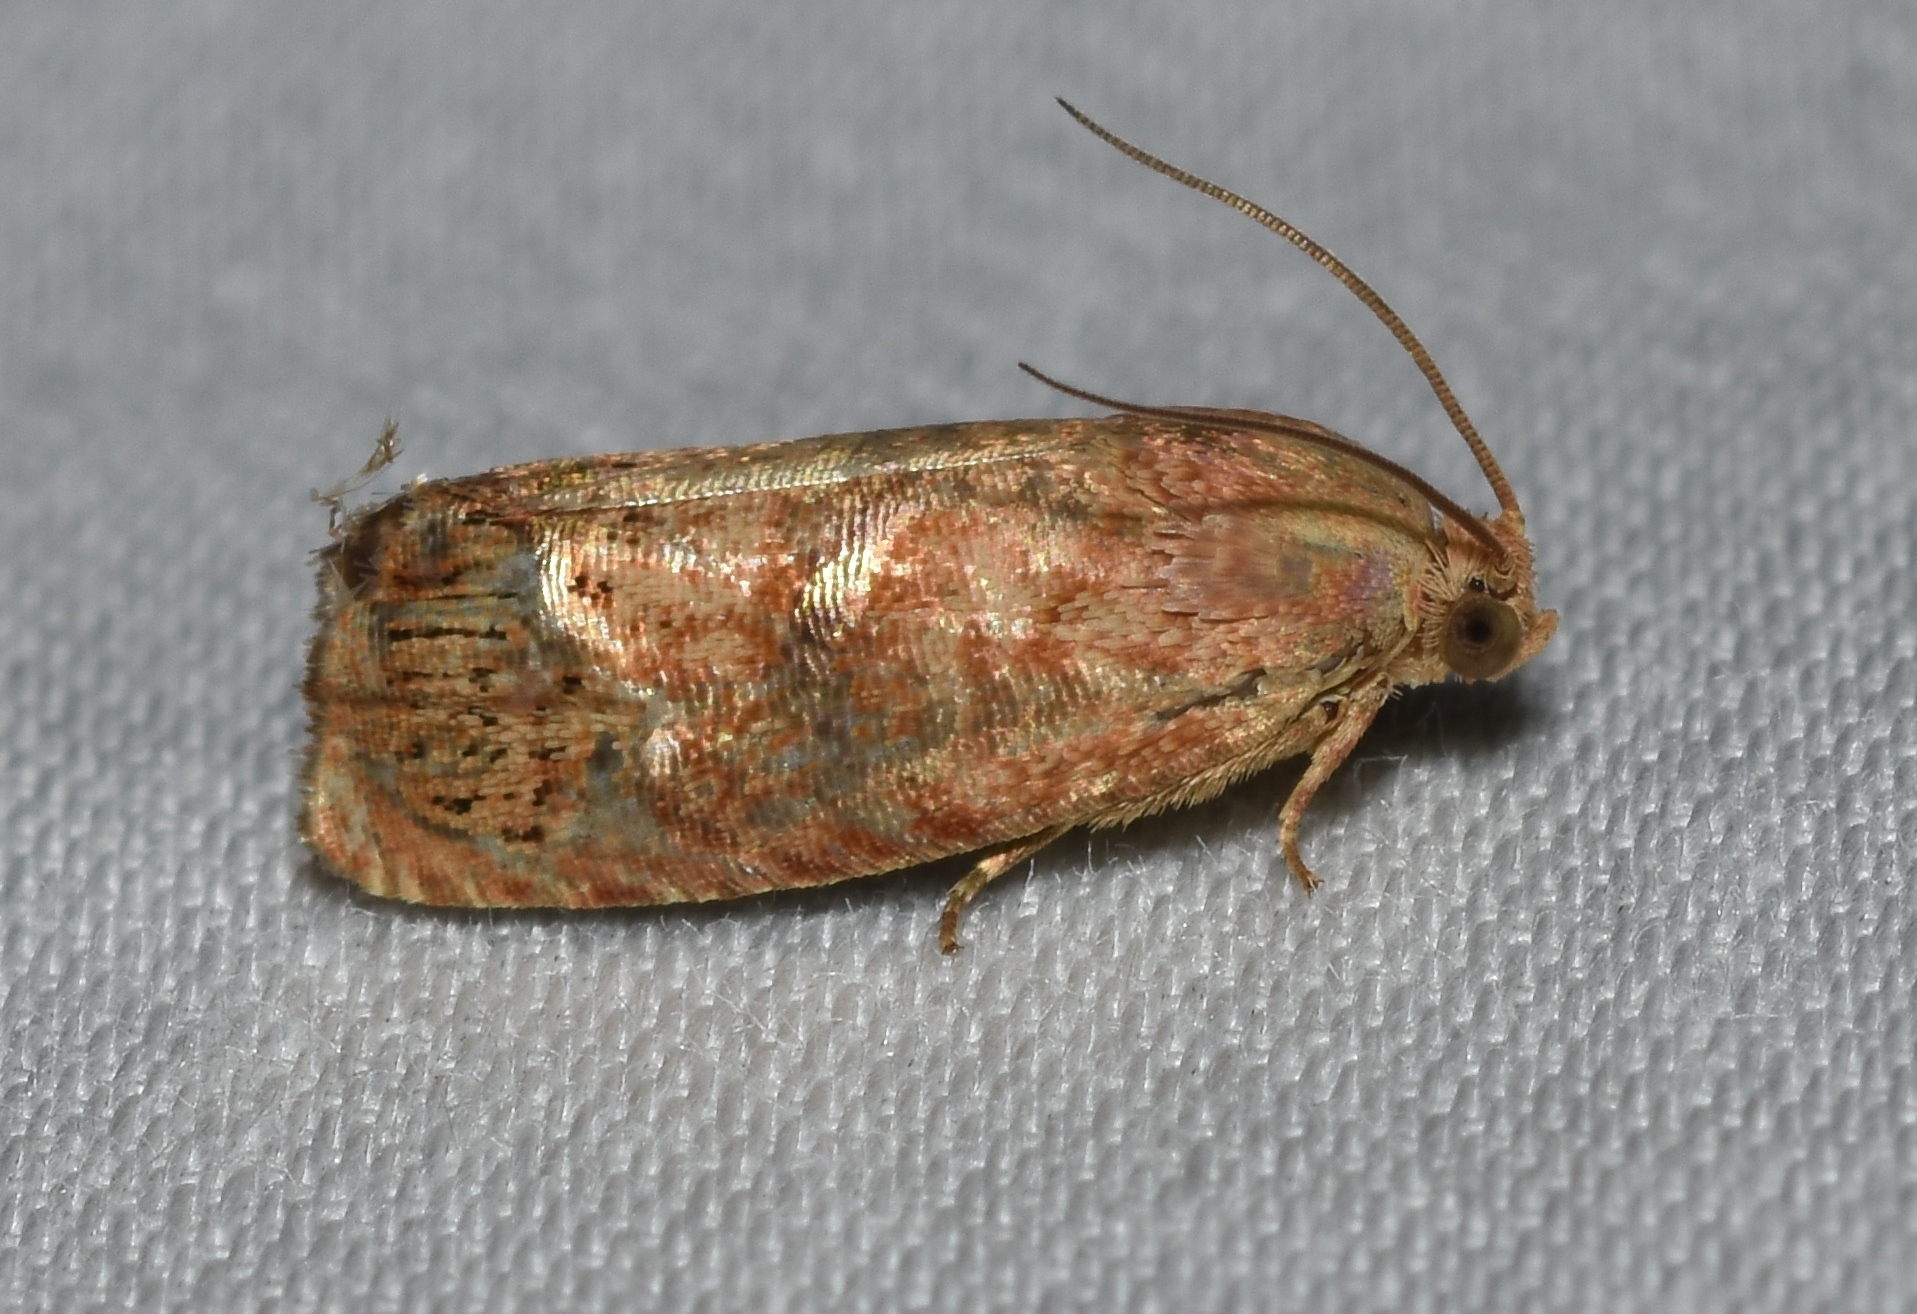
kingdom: Animalia
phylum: Arthropoda
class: Insecta
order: Lepidoptera
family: Tortricidae
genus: Cydia
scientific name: Cydia latiferreana
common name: Filbertworm moth
